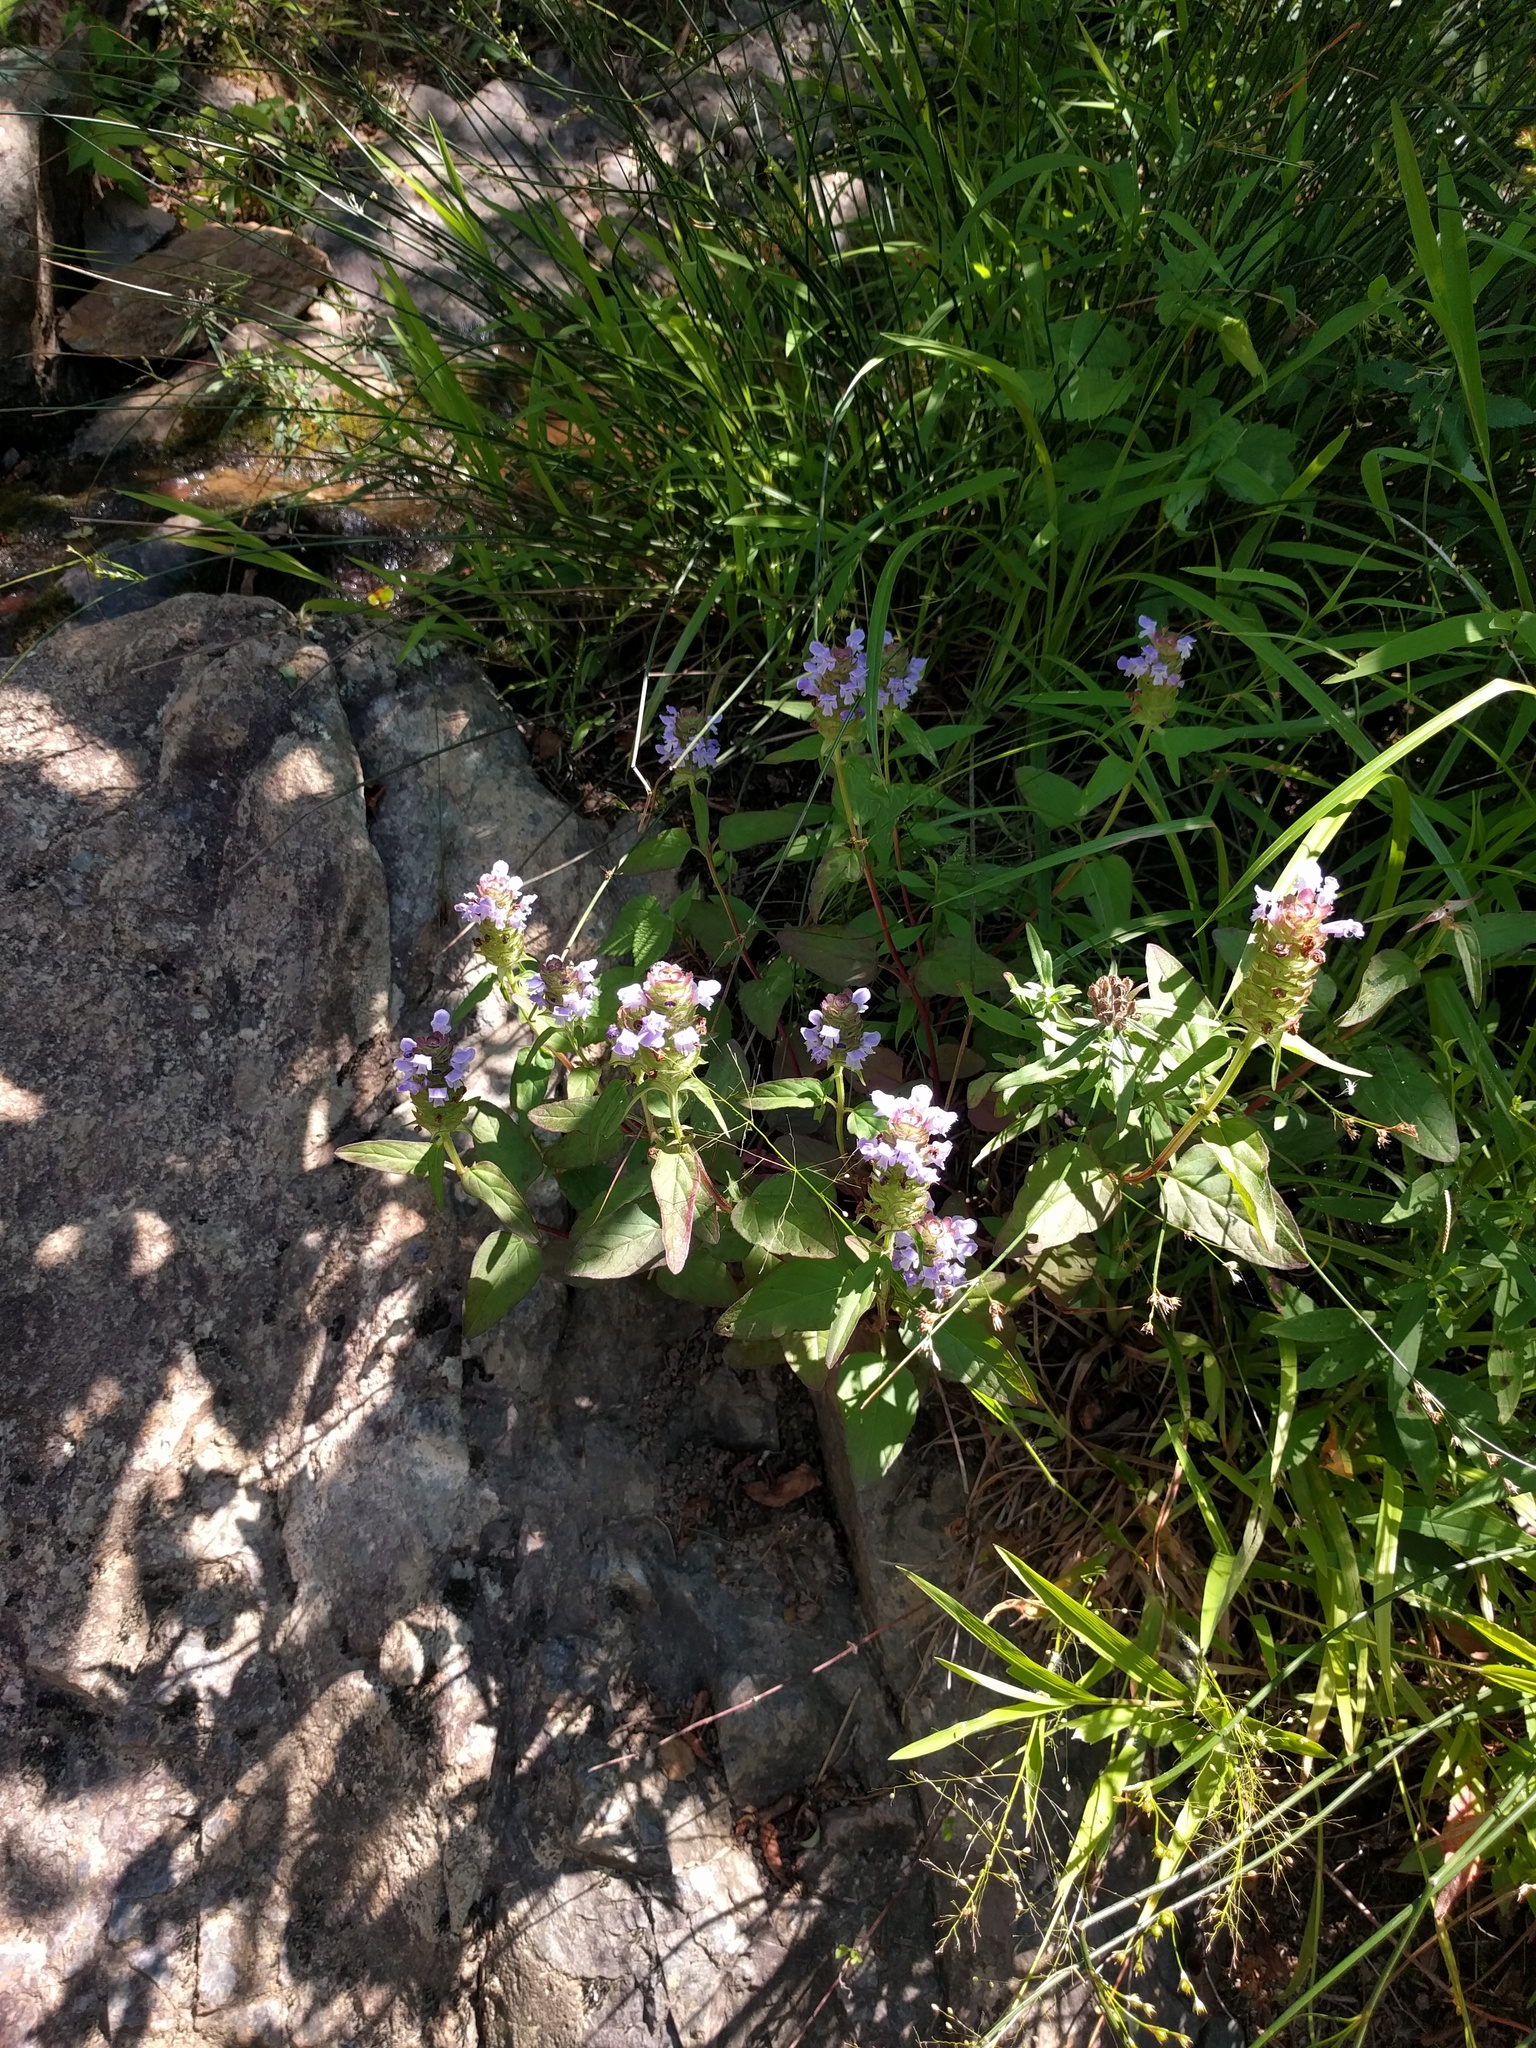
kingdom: Plantae
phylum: Tracheophyta
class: Magnoliopsida
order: Lamiales
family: Lamiaceae
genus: Prunella
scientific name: Prunella vulgaris
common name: Heal-all
